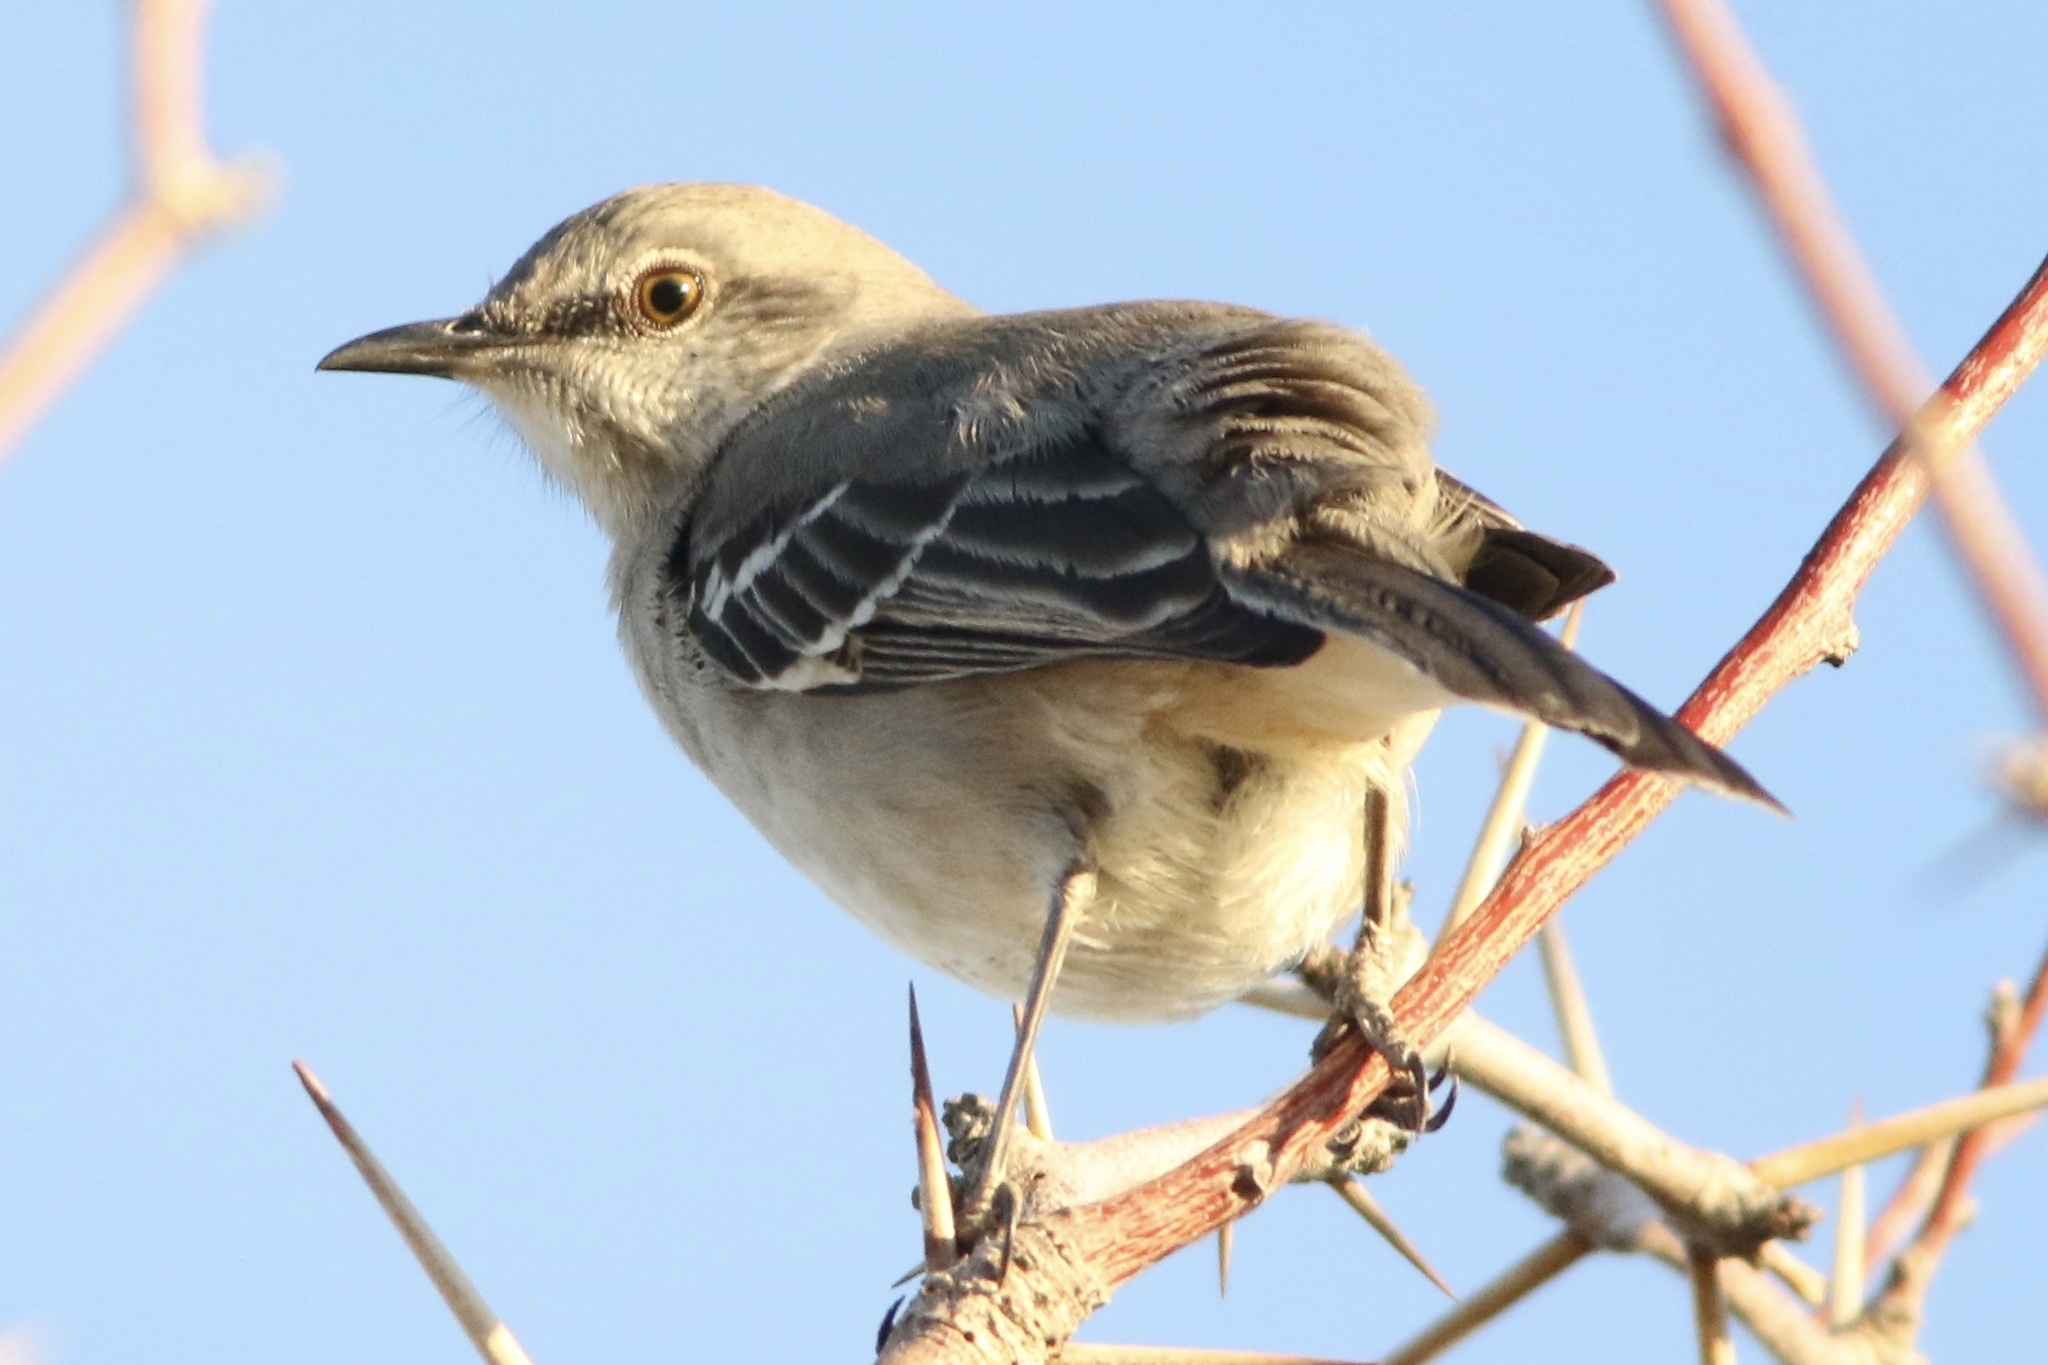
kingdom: Animalia
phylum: Chordata
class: Aves
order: Passeriformes
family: Mimidae
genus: Mimus
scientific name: Mimus polyglottos
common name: Northern mockingbird
